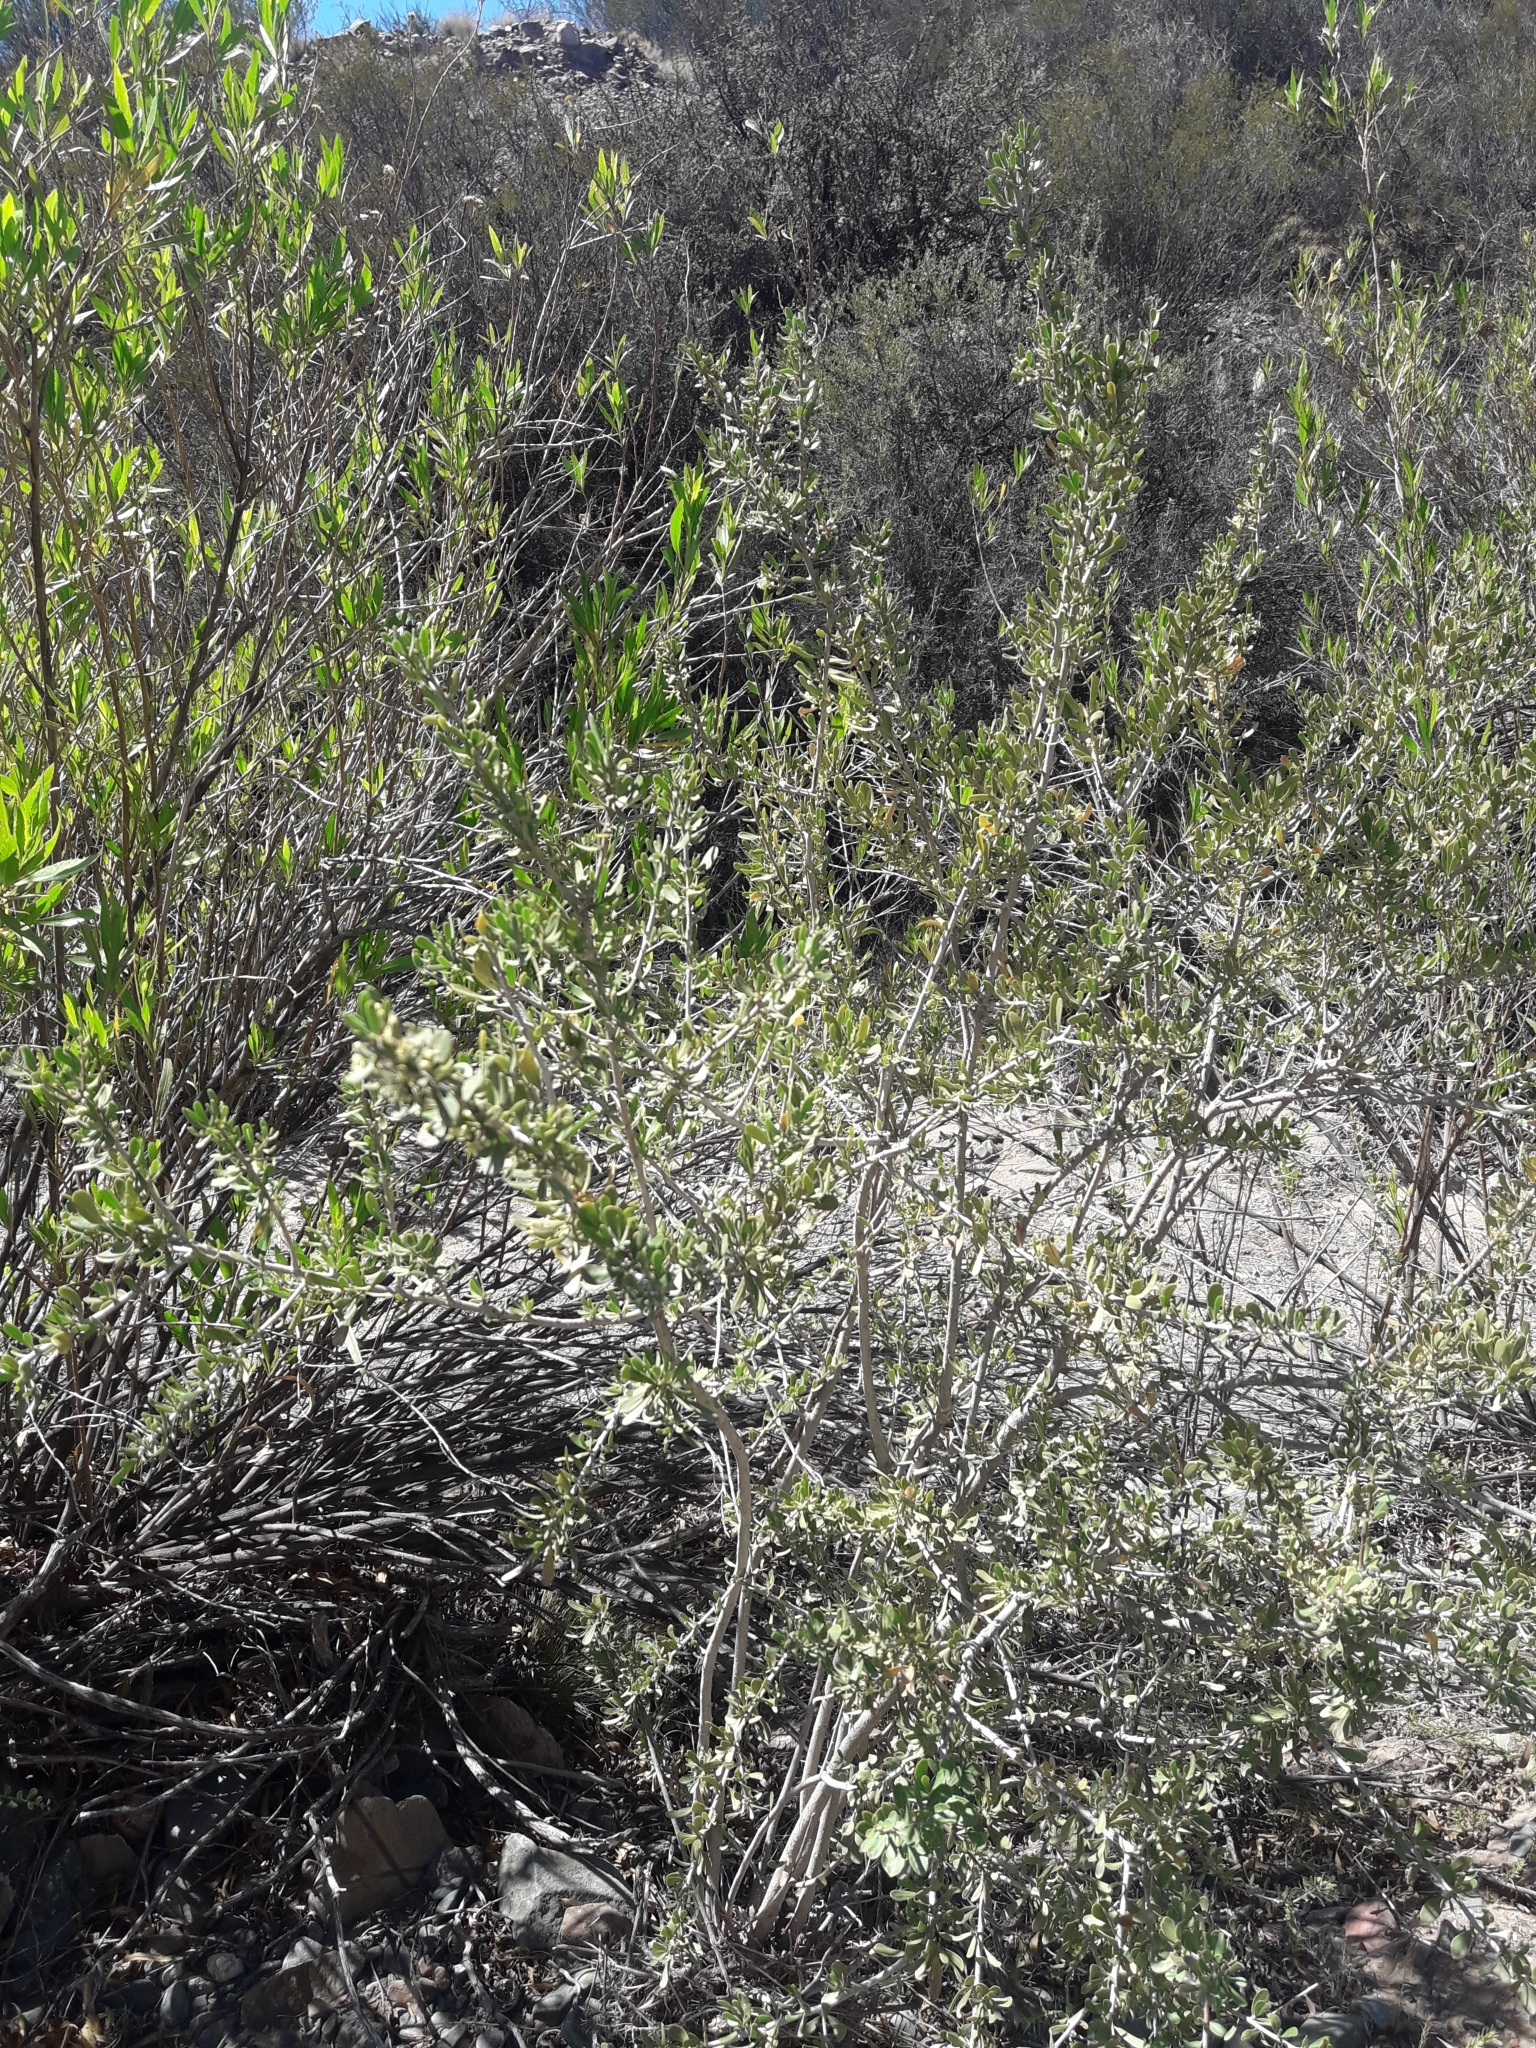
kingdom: Plantae
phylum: Tracheophyta
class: Magnoliopsida
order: Sapindales
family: Anacardiaceae
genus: Schinus
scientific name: Schinus johnstonii
